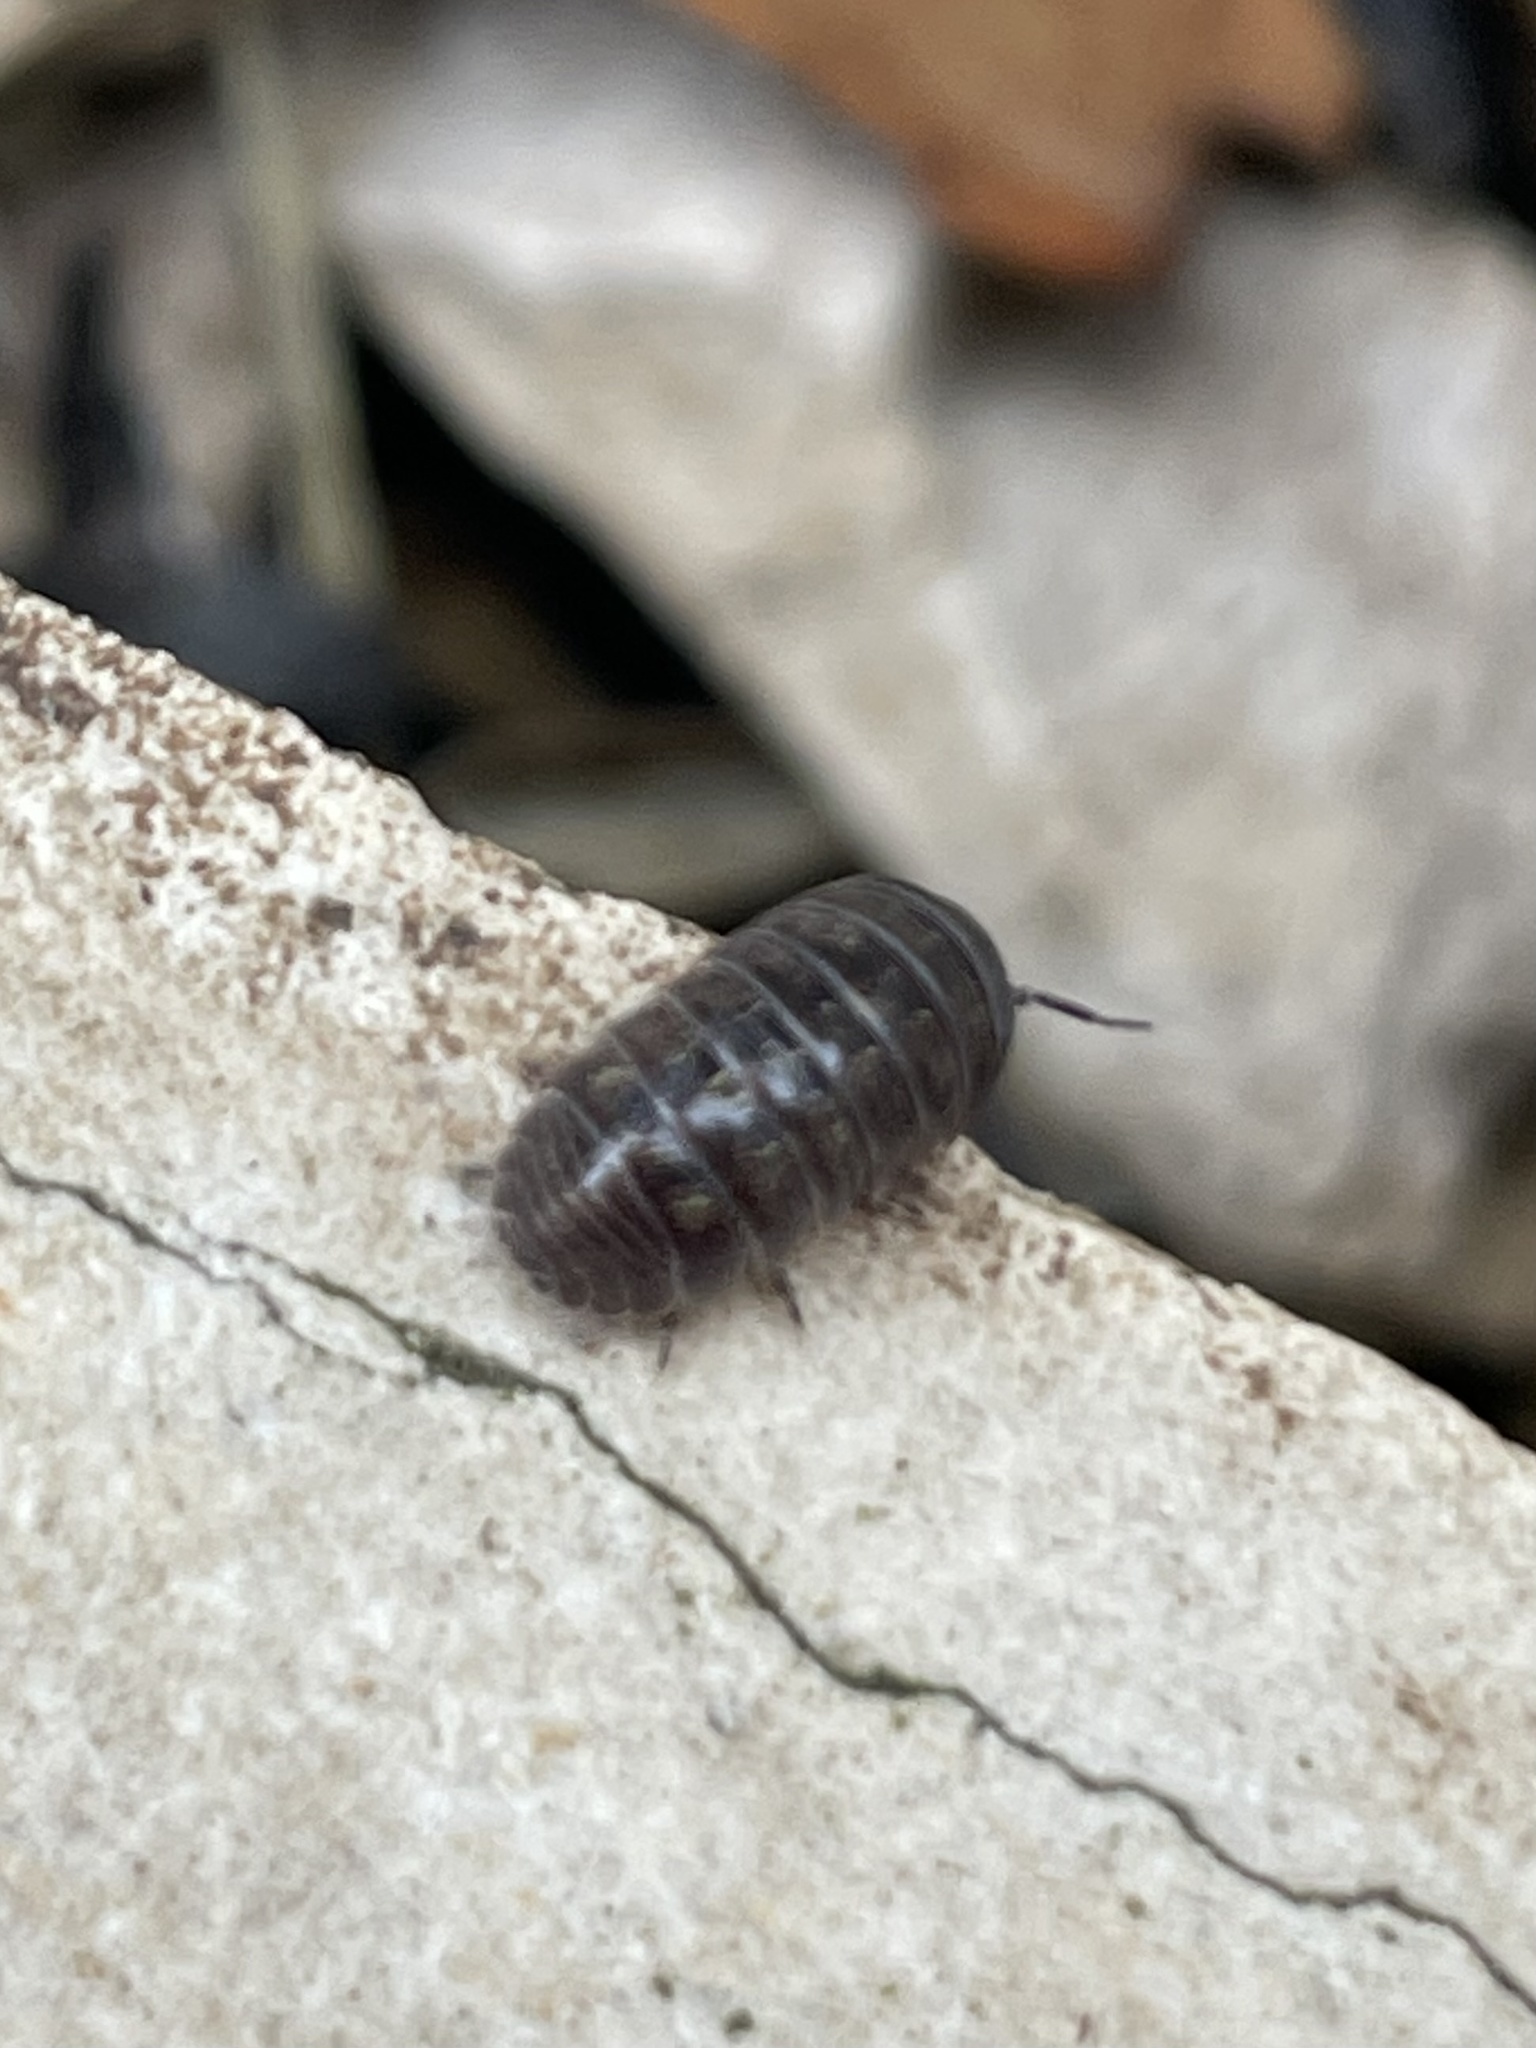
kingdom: Animalia
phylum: Arthropoda
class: Malacostraca
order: Isopoda
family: Armadillidiidae
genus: Armadillidium
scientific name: Armadillidium vulgare
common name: Common pill woodlouse
